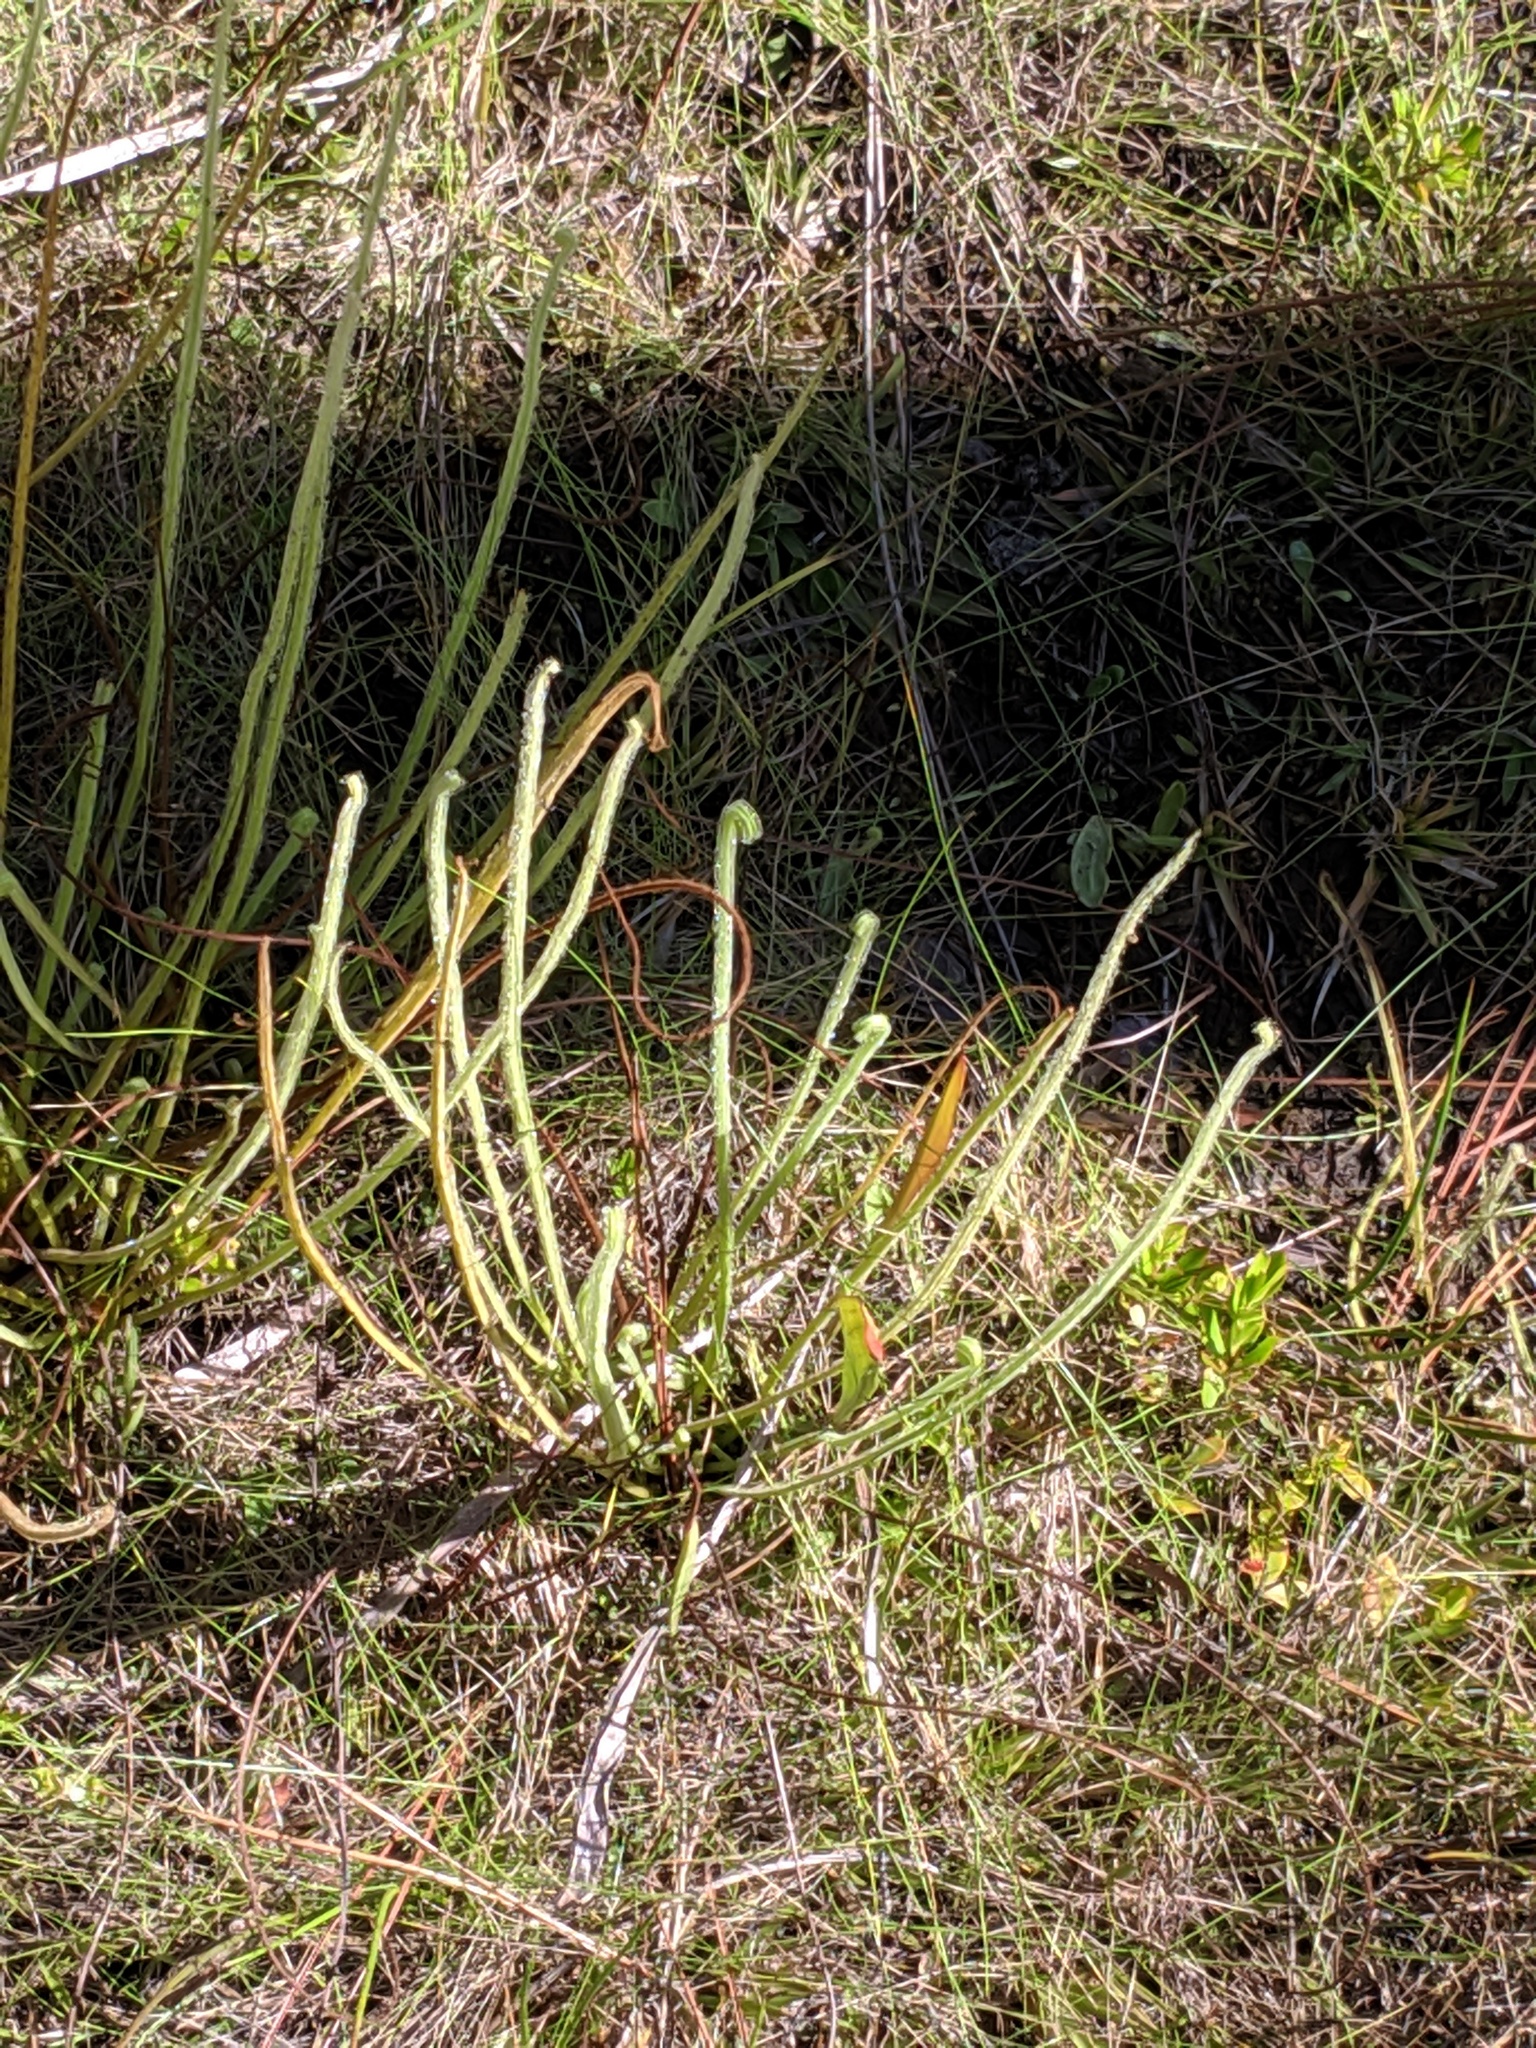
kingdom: Plantae
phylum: Tracheophyta
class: Magnoliopsida
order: Caryophyllales
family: Droseraceae
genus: Drosera
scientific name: Drosera filiformis
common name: Dew-thread
